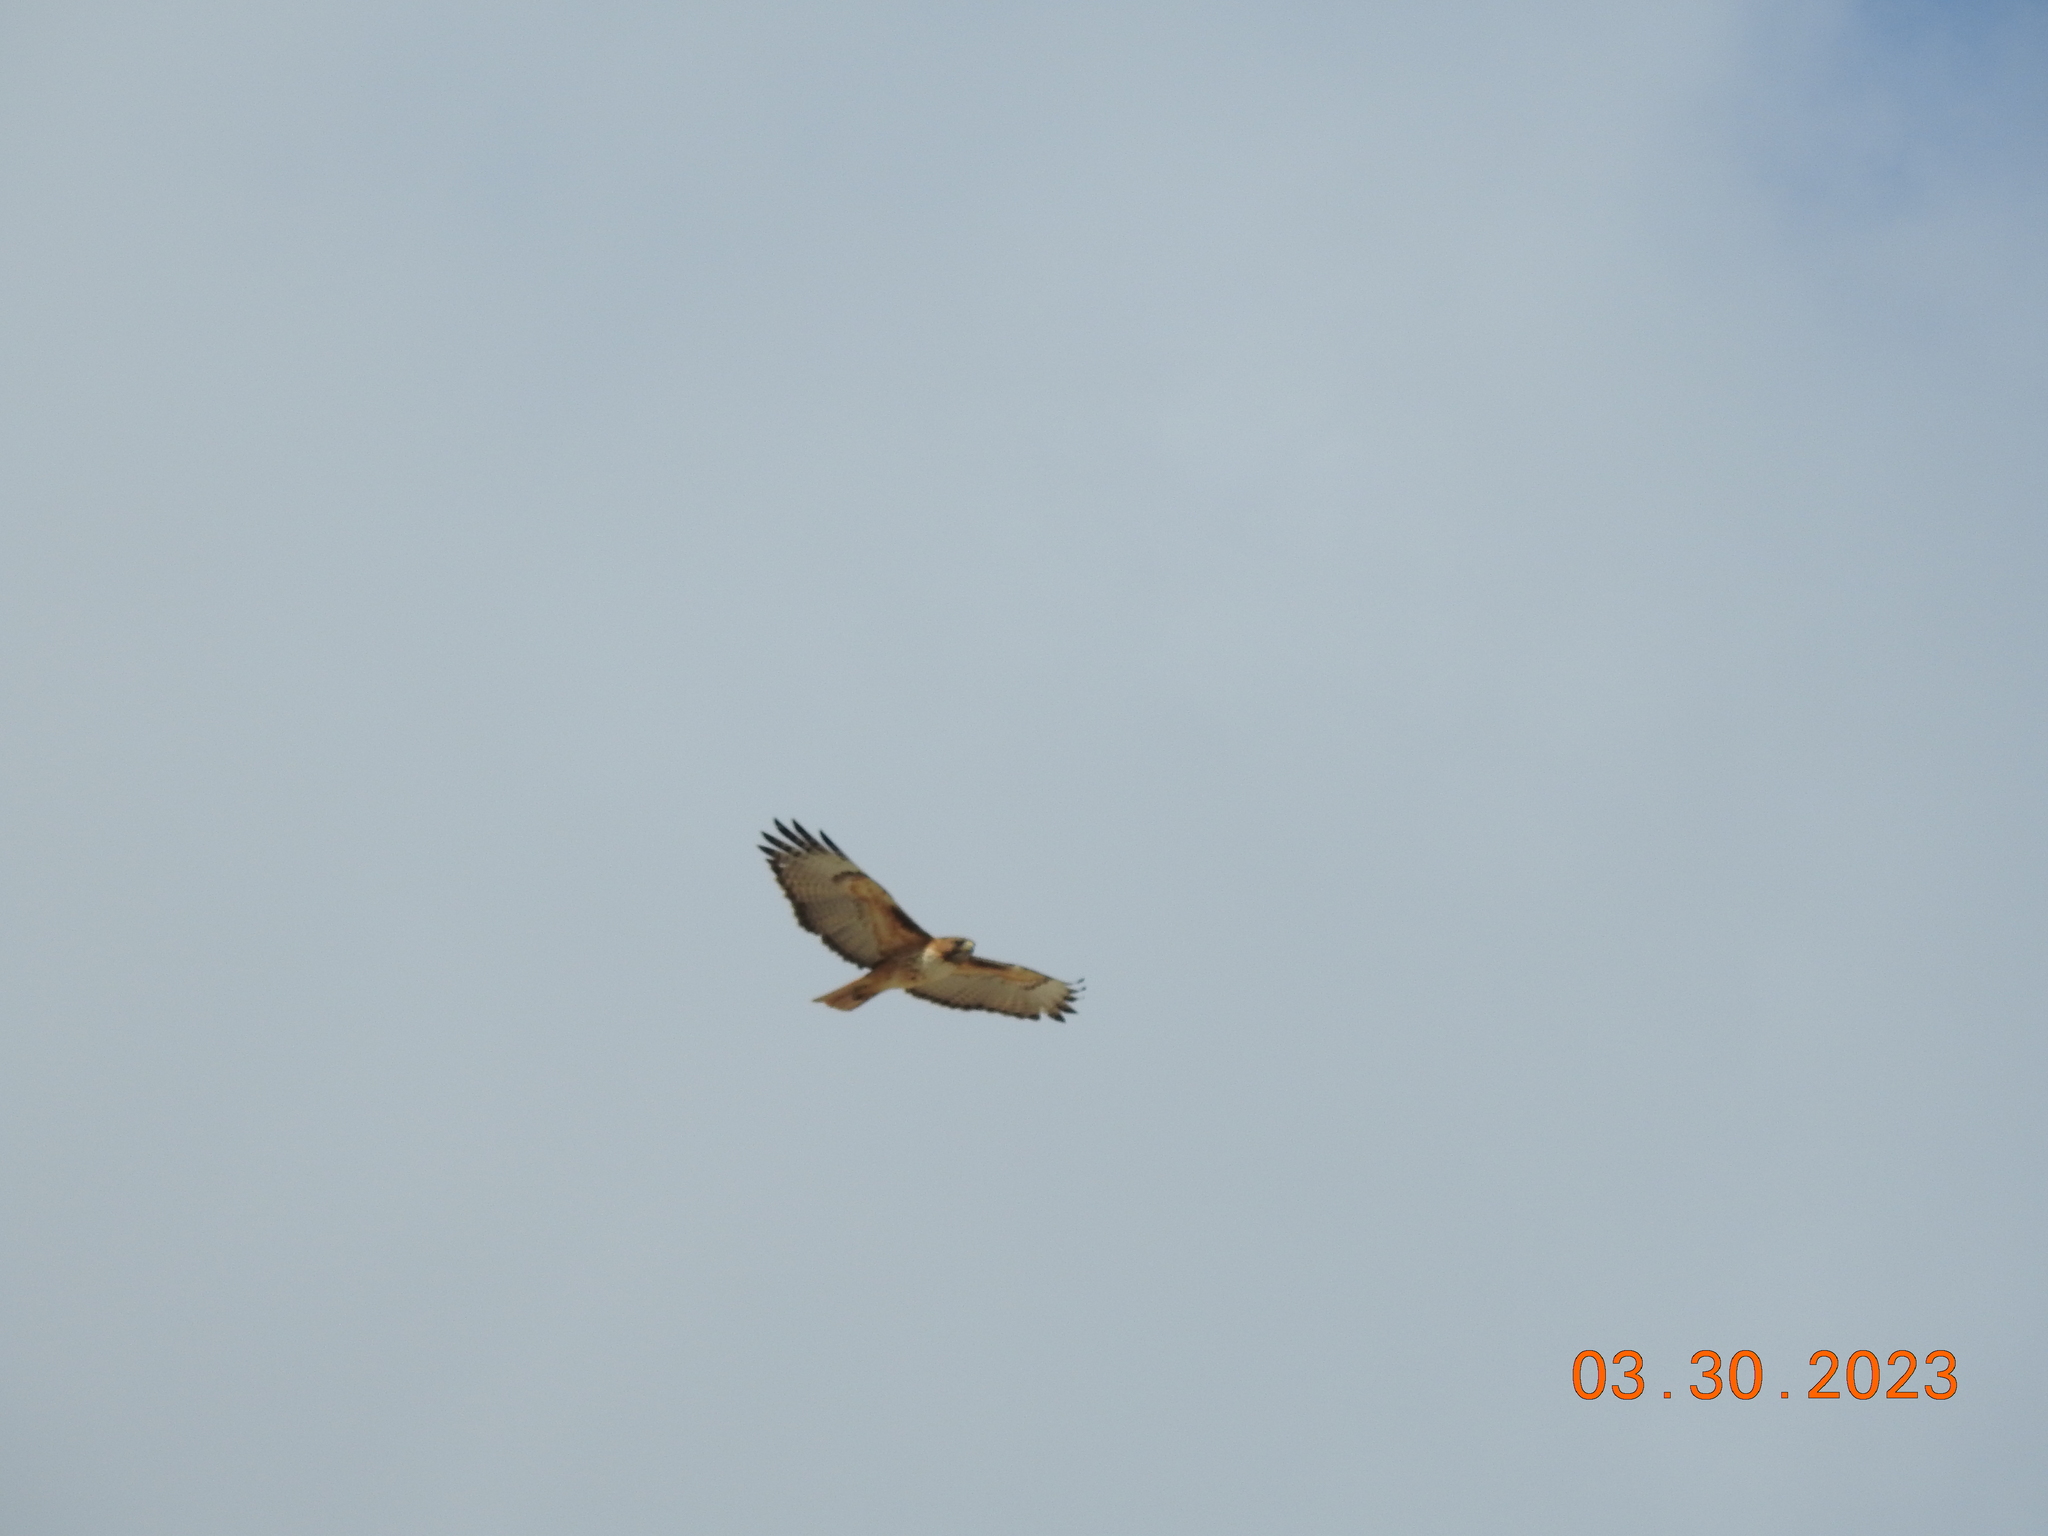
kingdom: Animalia
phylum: Chordata
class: Aves
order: Accipitriformes
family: Accipitridae
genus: Buteo
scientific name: Buteo jamaicensis
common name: Red-tailed hawk
